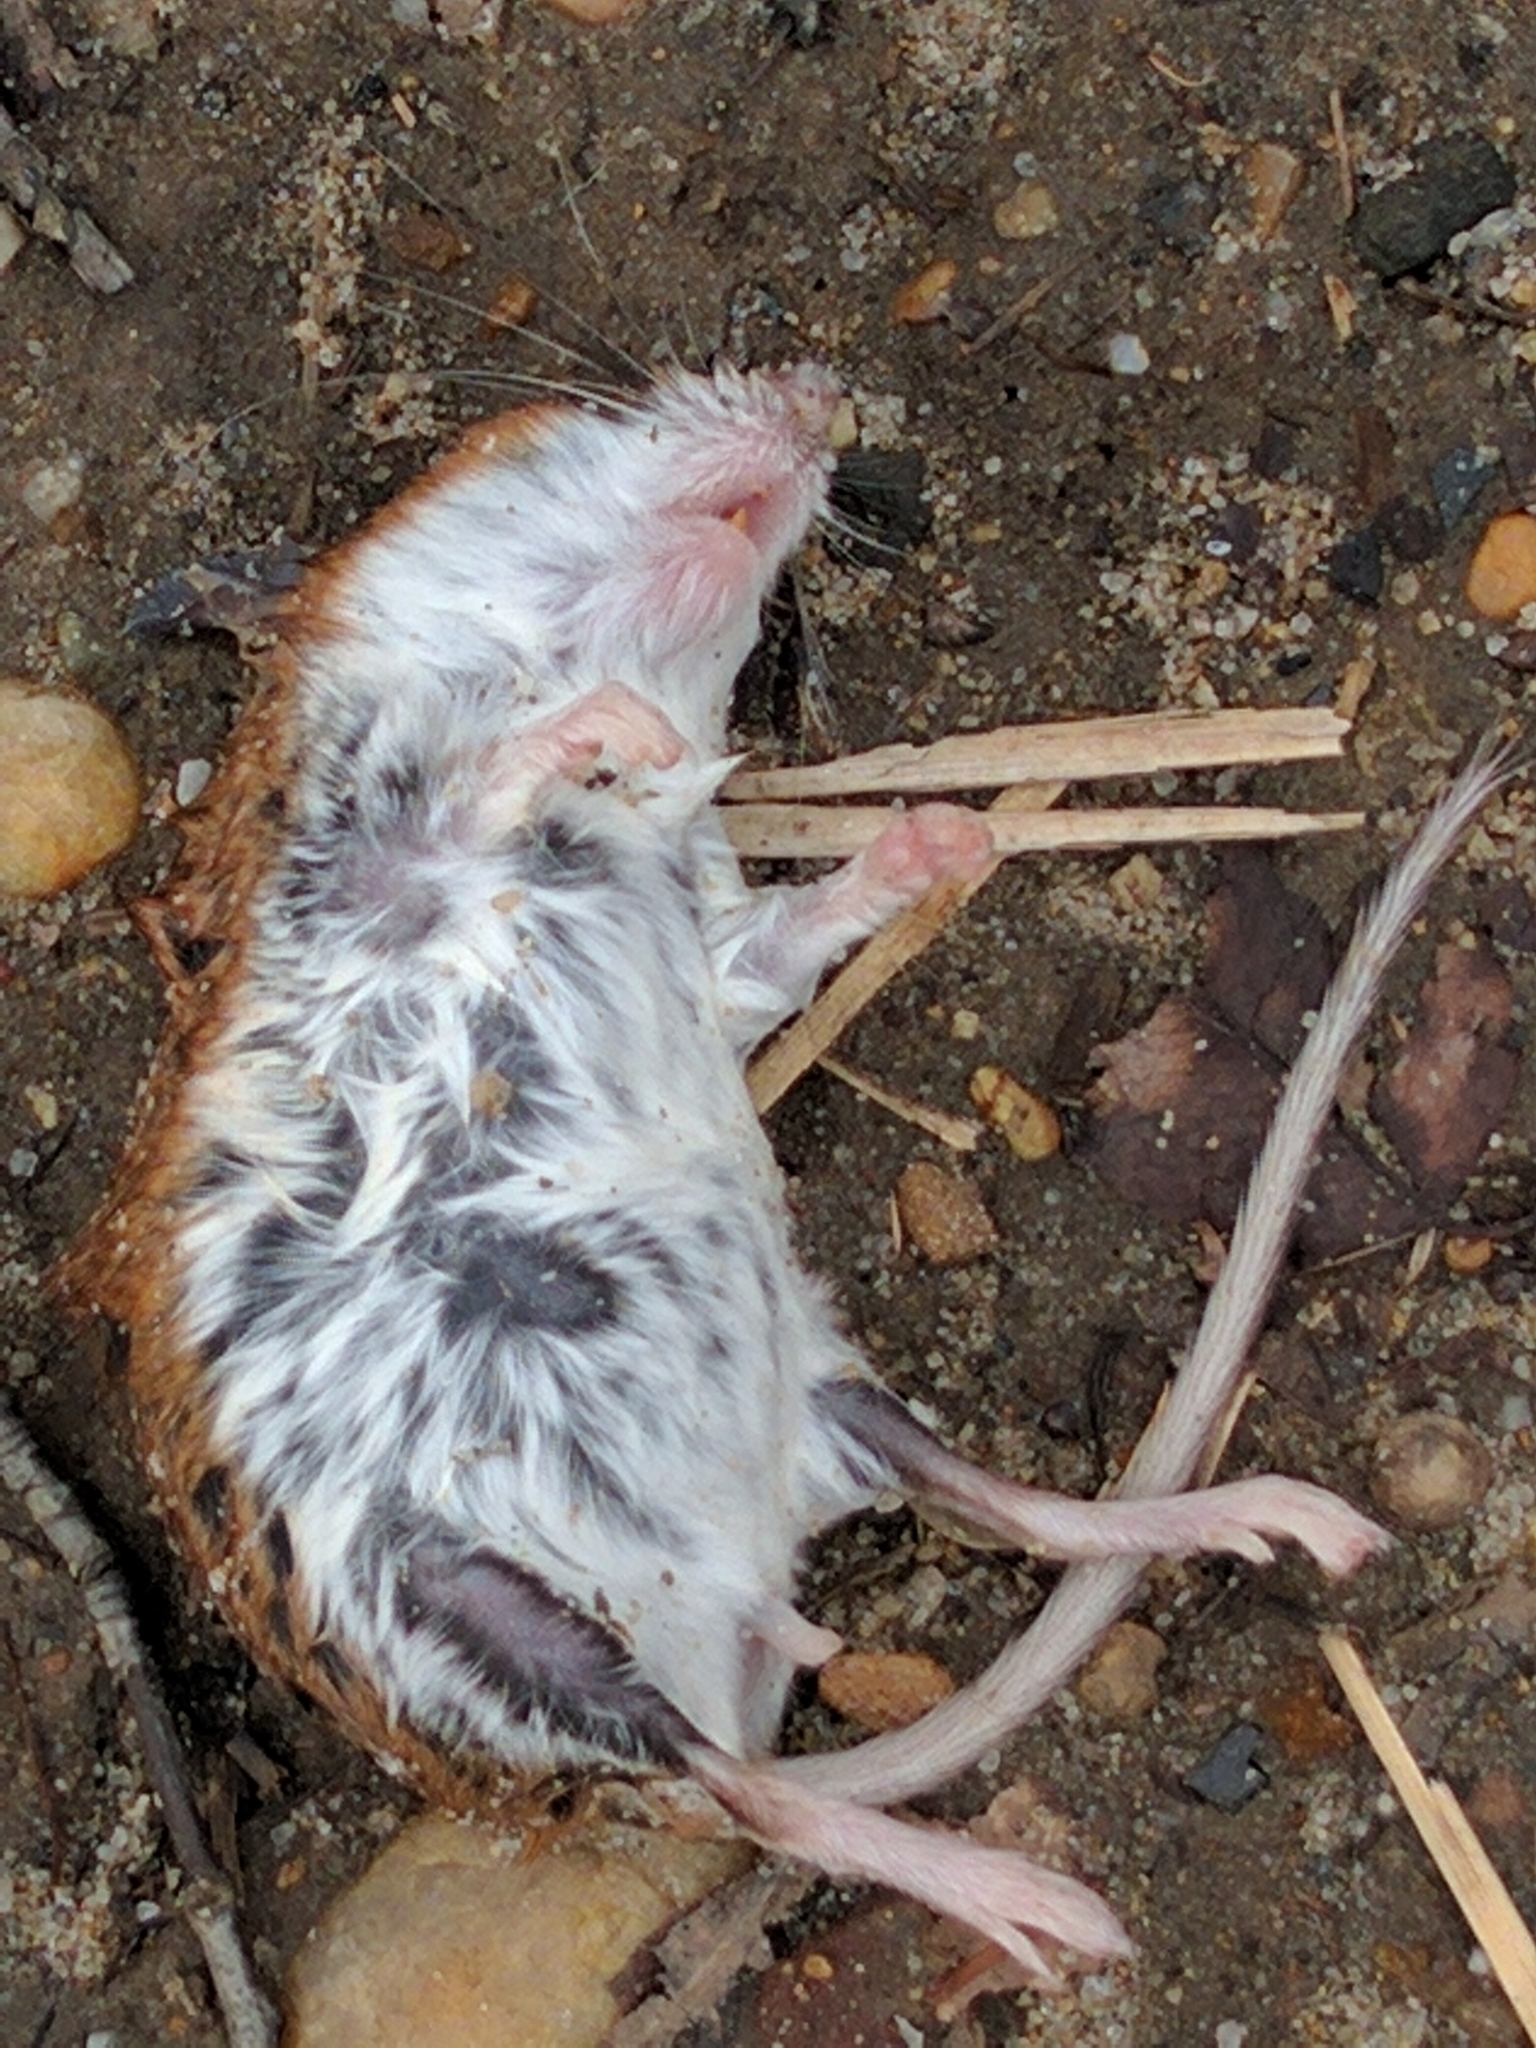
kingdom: Animalia
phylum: Chordata
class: Mammalia
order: Rodentia
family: Cricetidae
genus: Peromyscus
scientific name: Peromyscus leucopus
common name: White-footed deermouse
